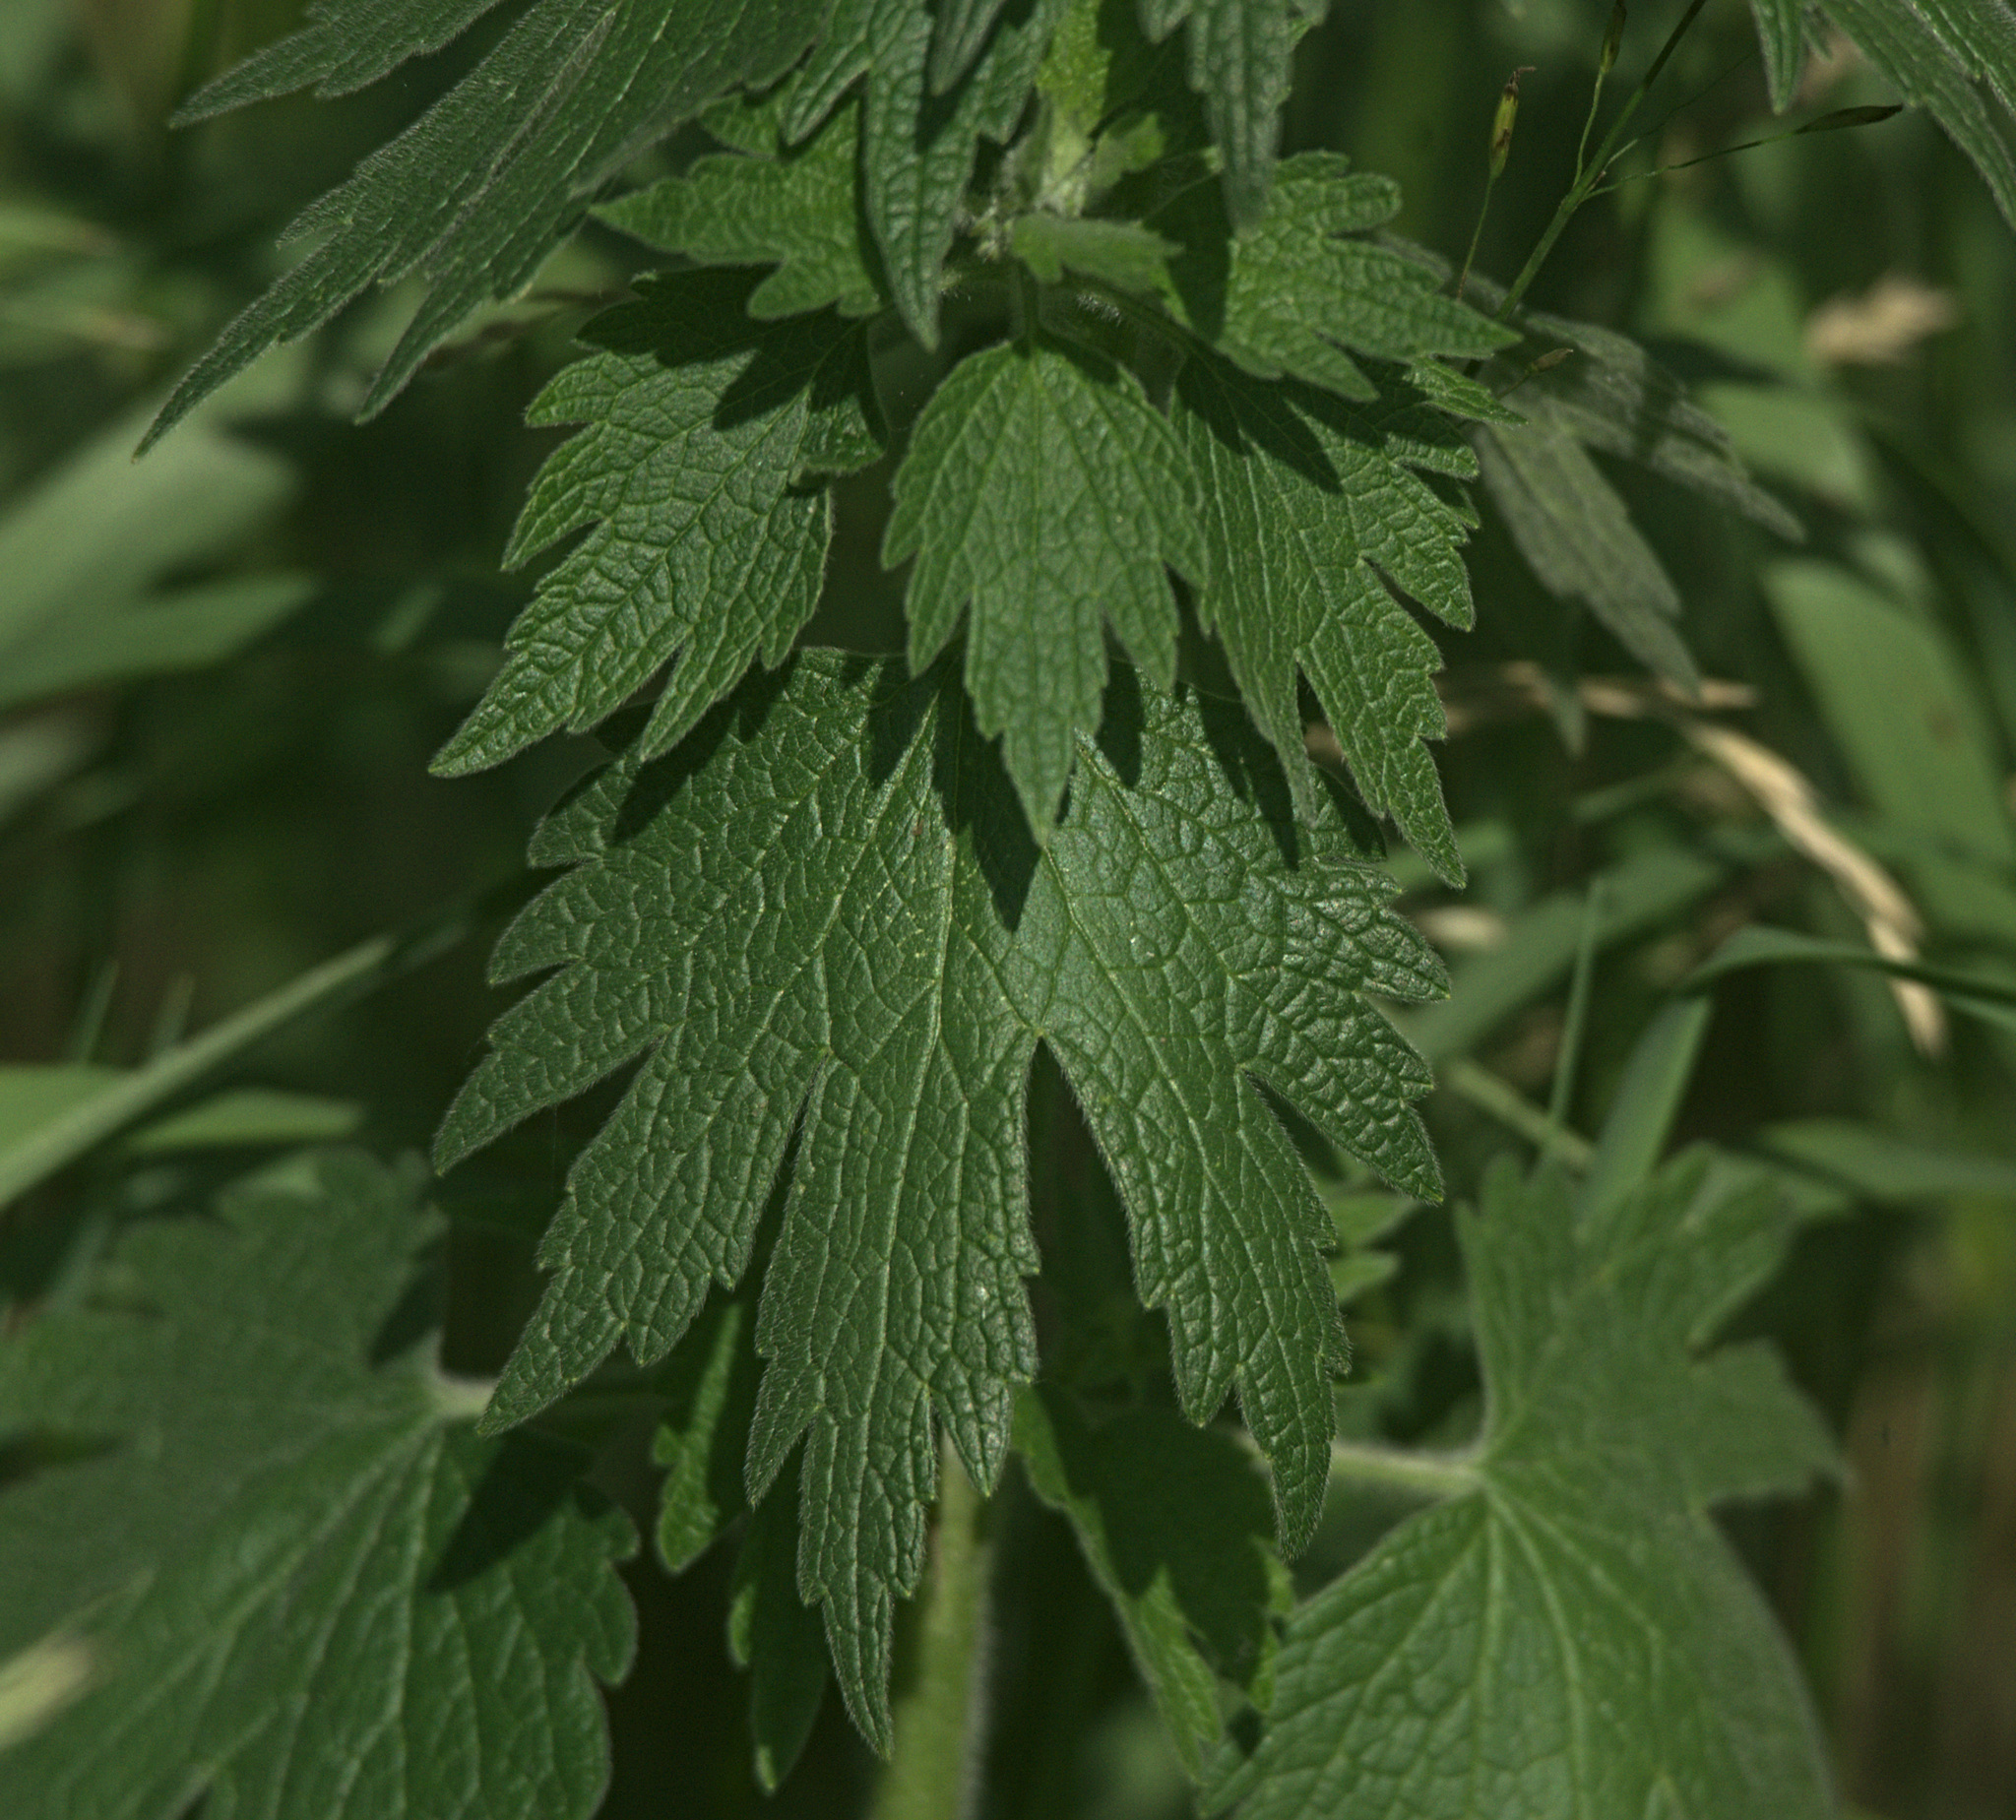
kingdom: Plantae
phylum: Tracheophyta
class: Magnoliopsida
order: Lamiales
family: Lamiaceae
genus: Leonurus
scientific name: Leonurus quinquelobatus
